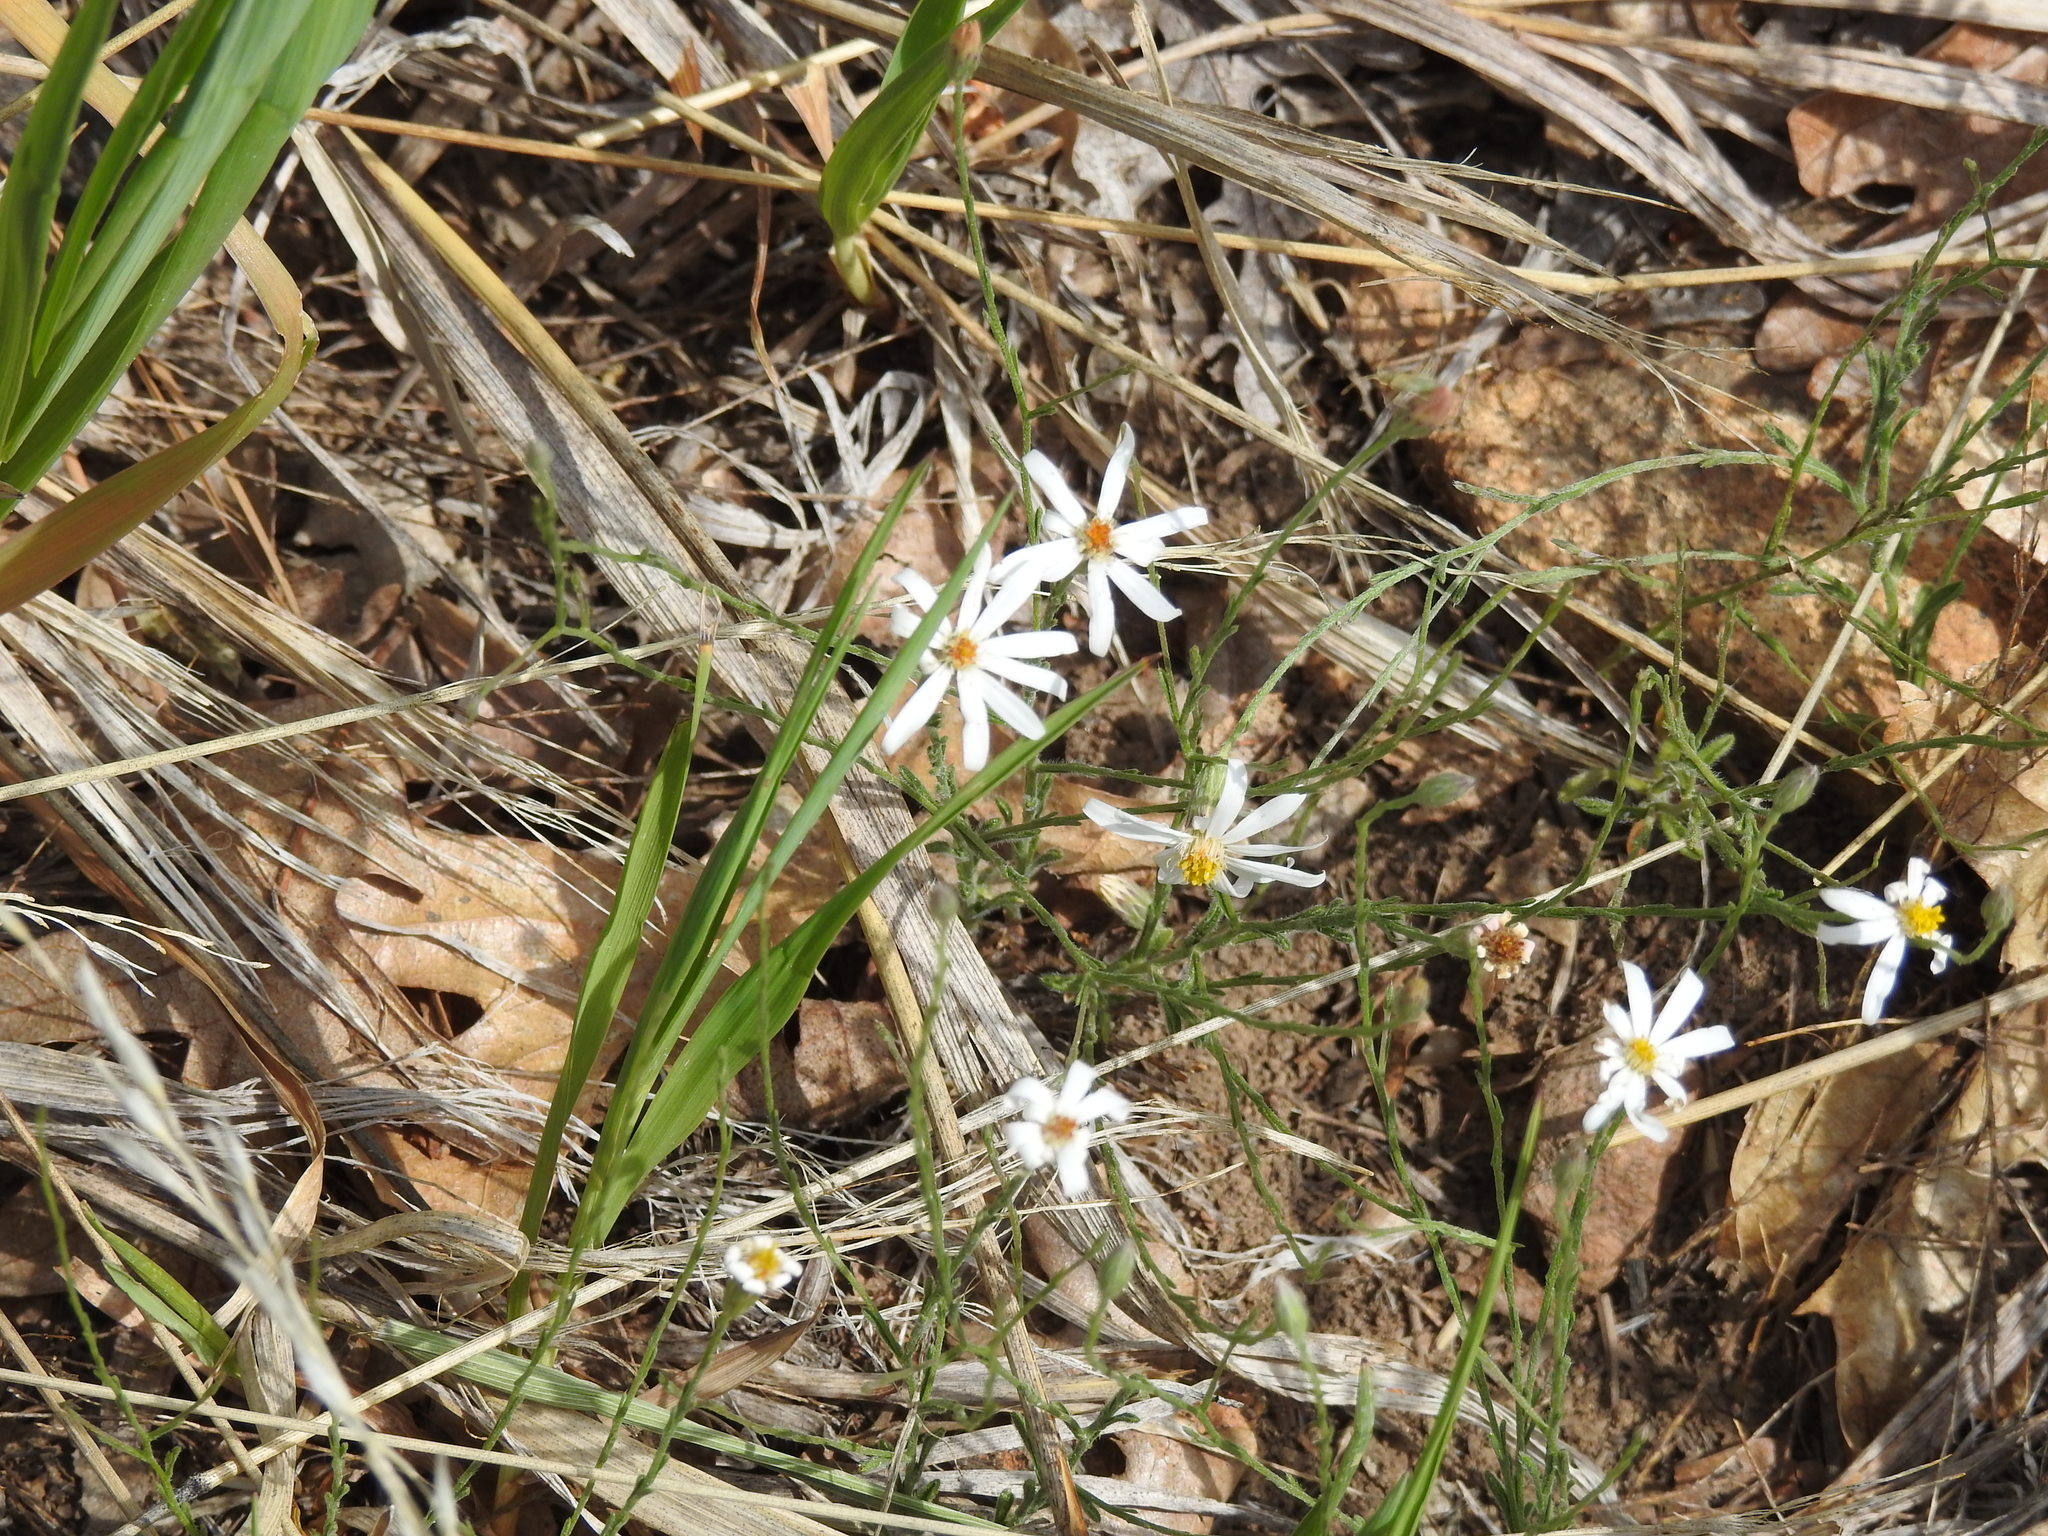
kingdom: Plantae
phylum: Tracheophyta
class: Magnoliopsida
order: Asterales
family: Asteraceae
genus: Symphyotrichum
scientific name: Symphyotrichum falcatum
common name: Creeping white prairie aster
